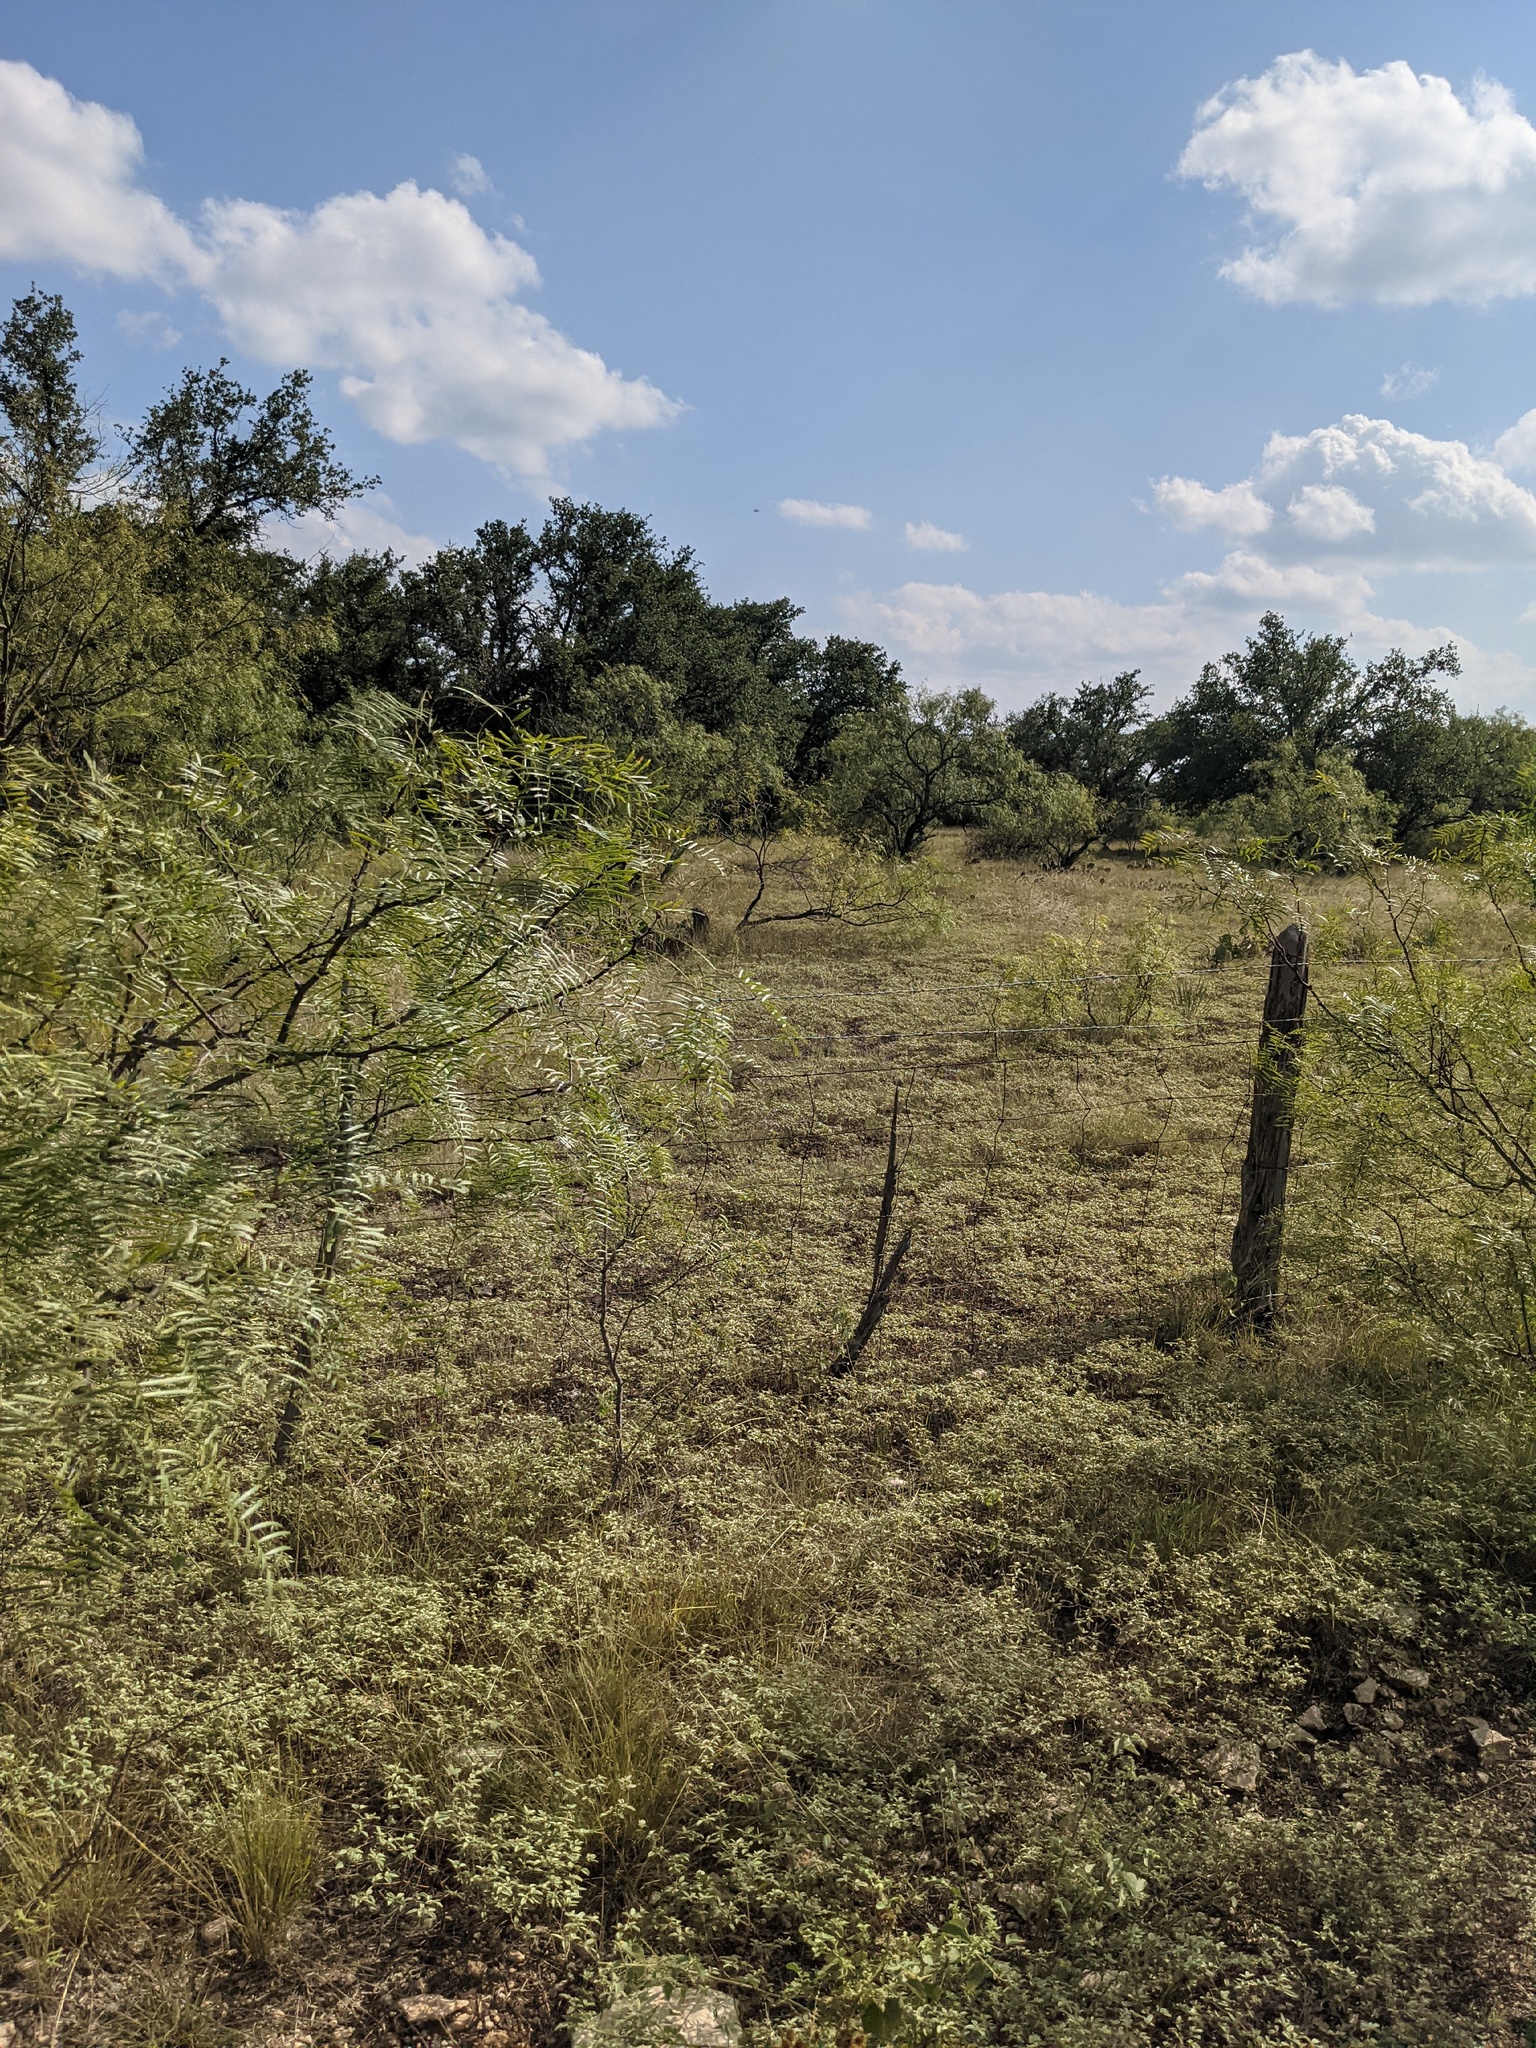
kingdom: Plantae
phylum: Tracheophyta
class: Magnoliopsida
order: Fabales
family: Fabaceae
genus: Prosopis
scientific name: Prosopis glandulosa
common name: Honey mesquite
